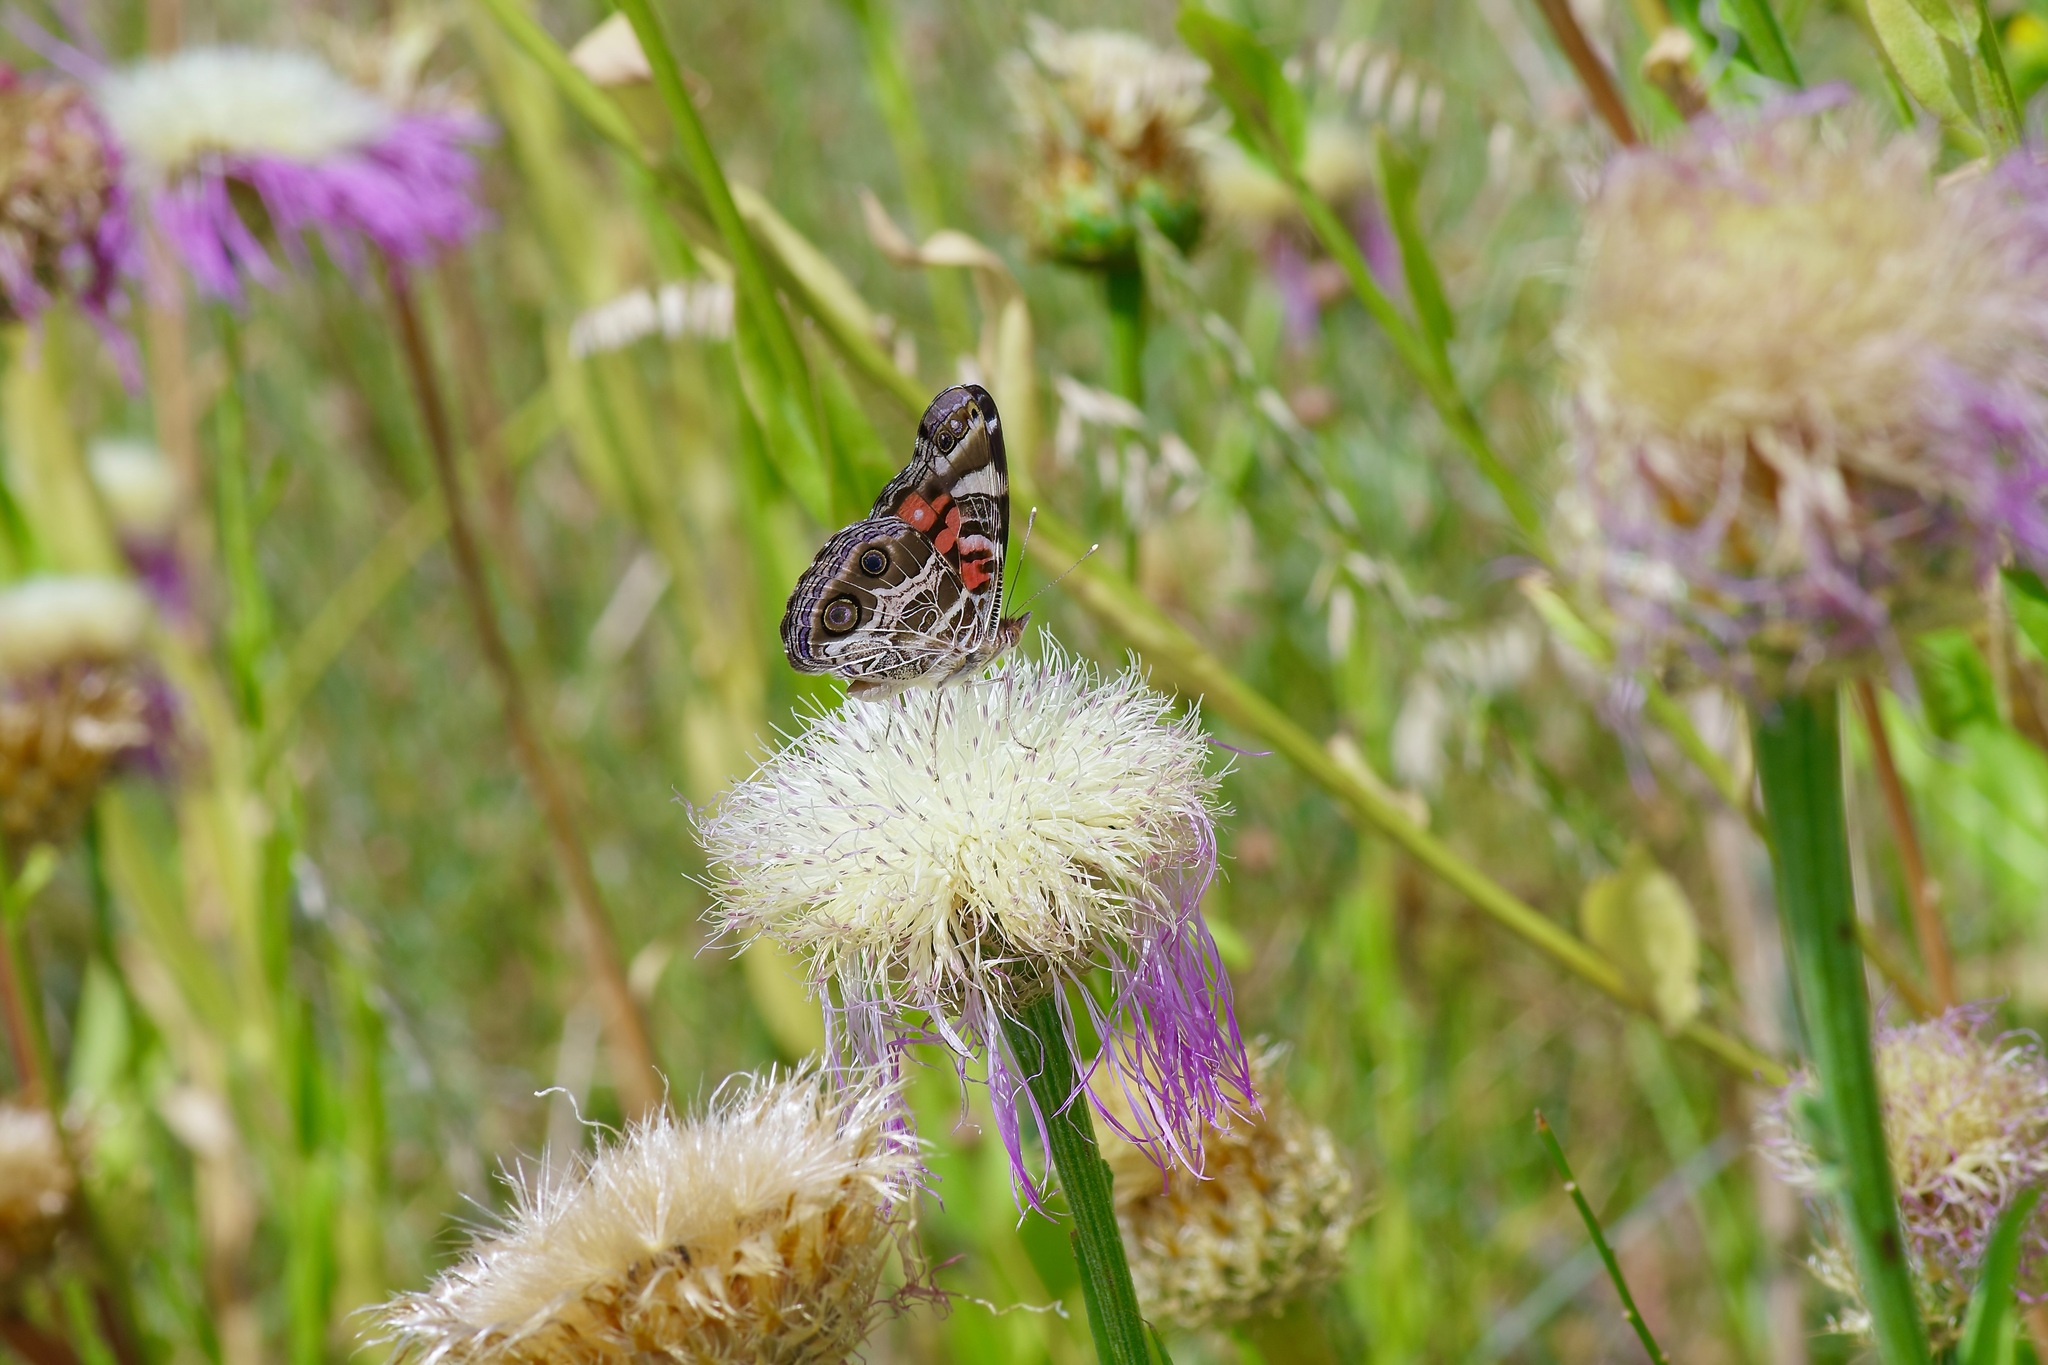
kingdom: Animalia
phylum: Arthropoda
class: Insecta
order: Lepidoptera
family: Nymphalidae
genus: Vanessa
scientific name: Vanessa virginiensis
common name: American lady
